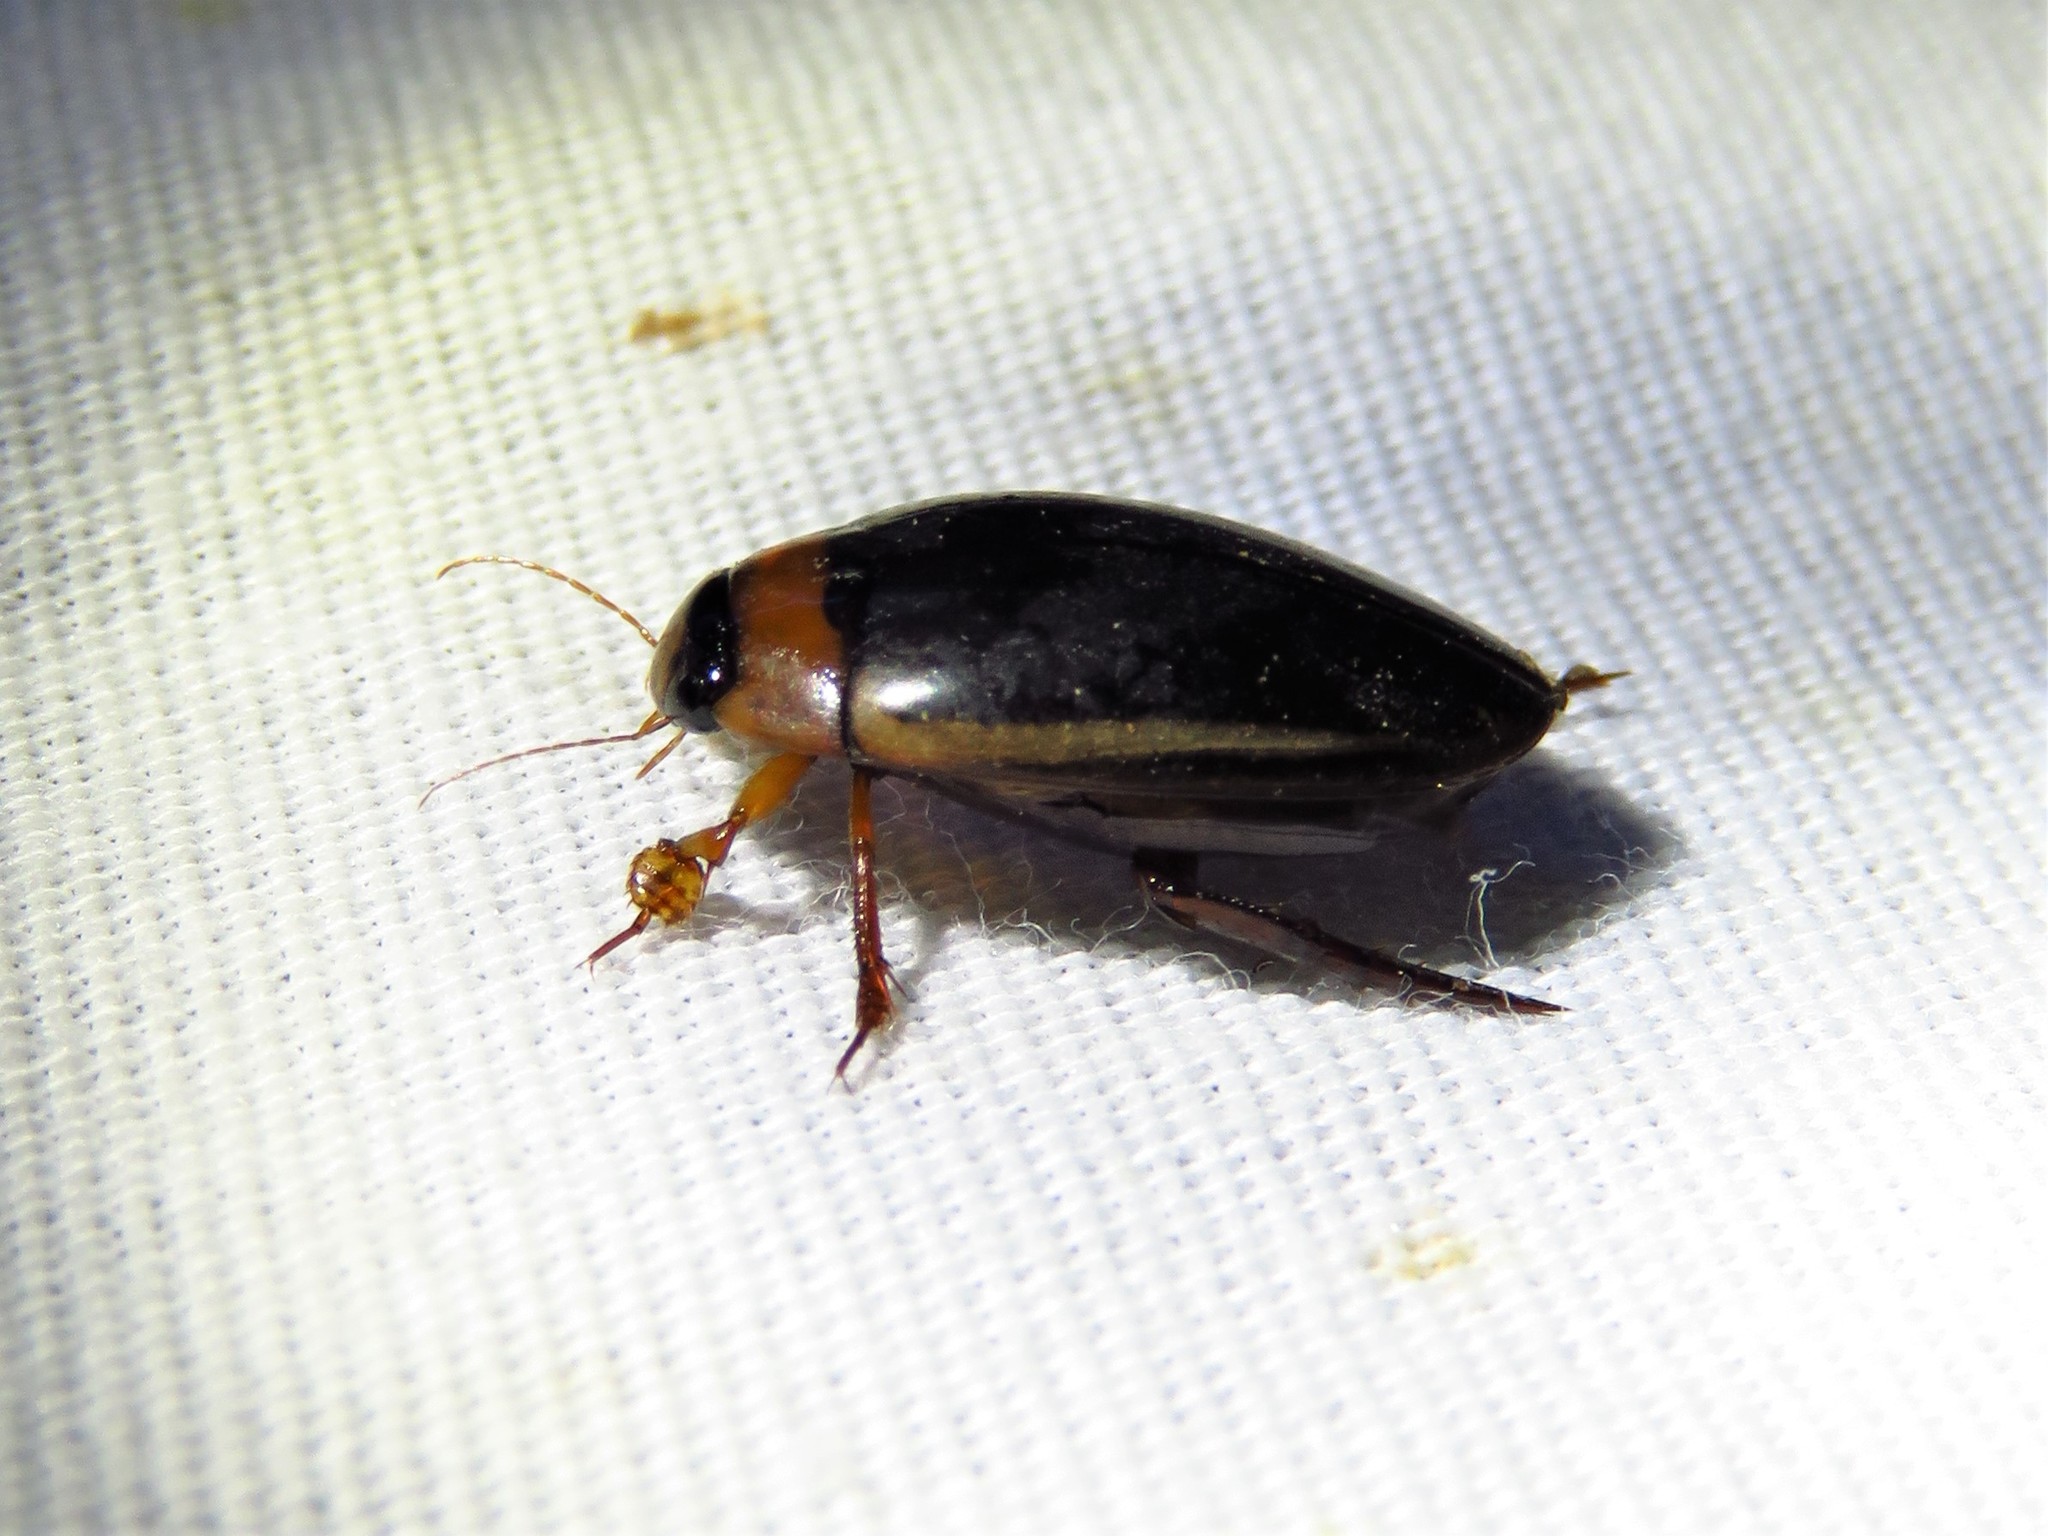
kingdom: Animalia
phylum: Arthropoda
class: Insecta
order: Coleoptera
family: Dytiscidae
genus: Hydaticus
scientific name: Hydaticus bimarginatus
